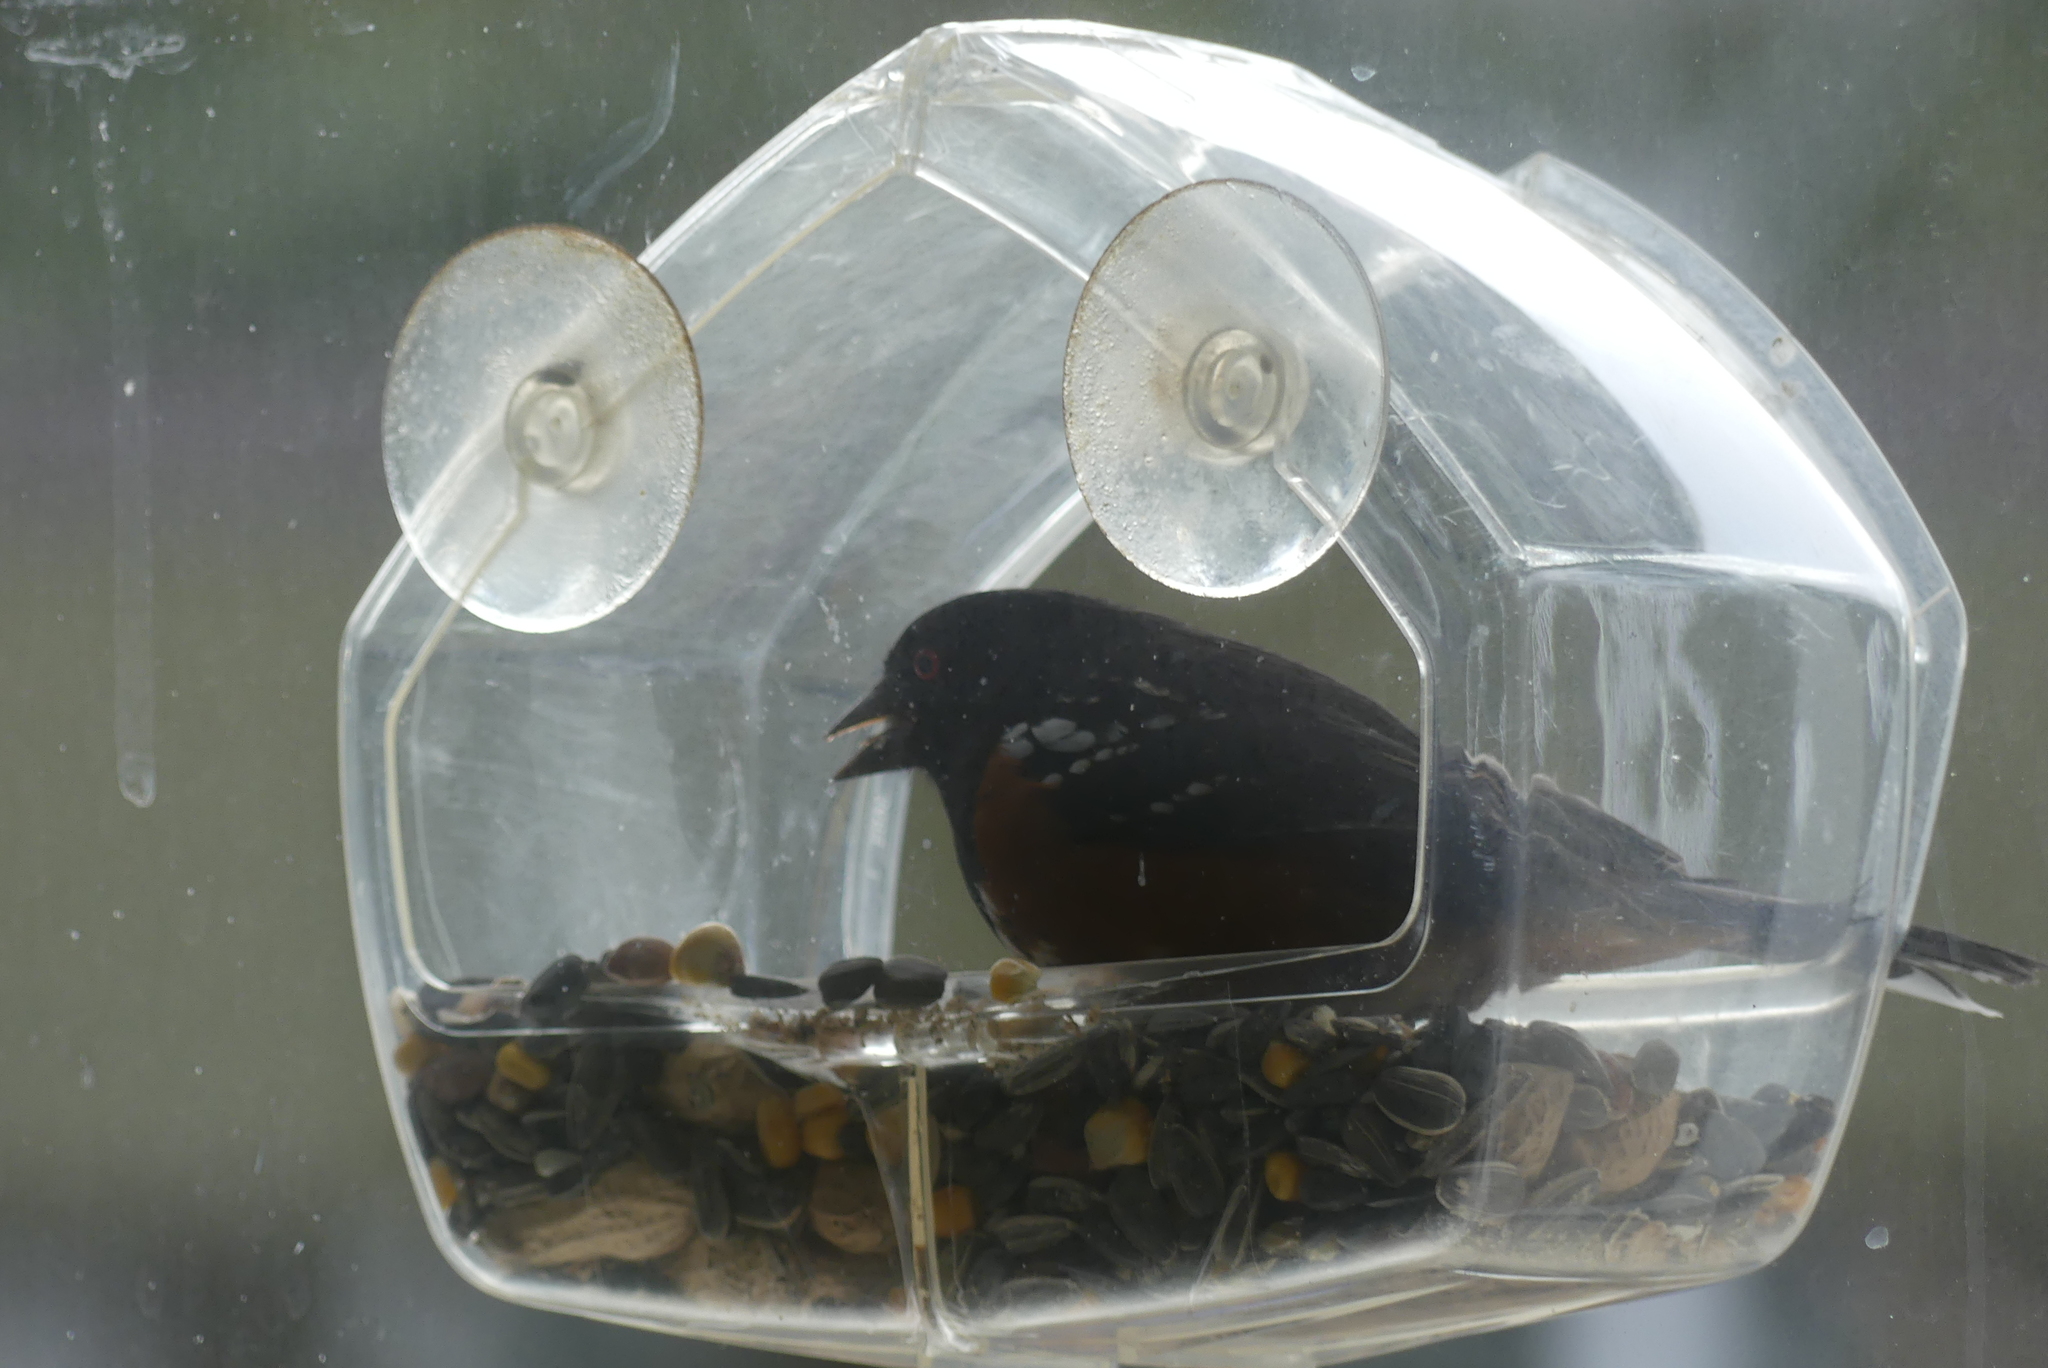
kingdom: Animalia
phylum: Chordata
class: Aves
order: Passeriformes
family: Passerellidae
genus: Pipilo
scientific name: Pipilo maculatus
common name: Spotted towhee
